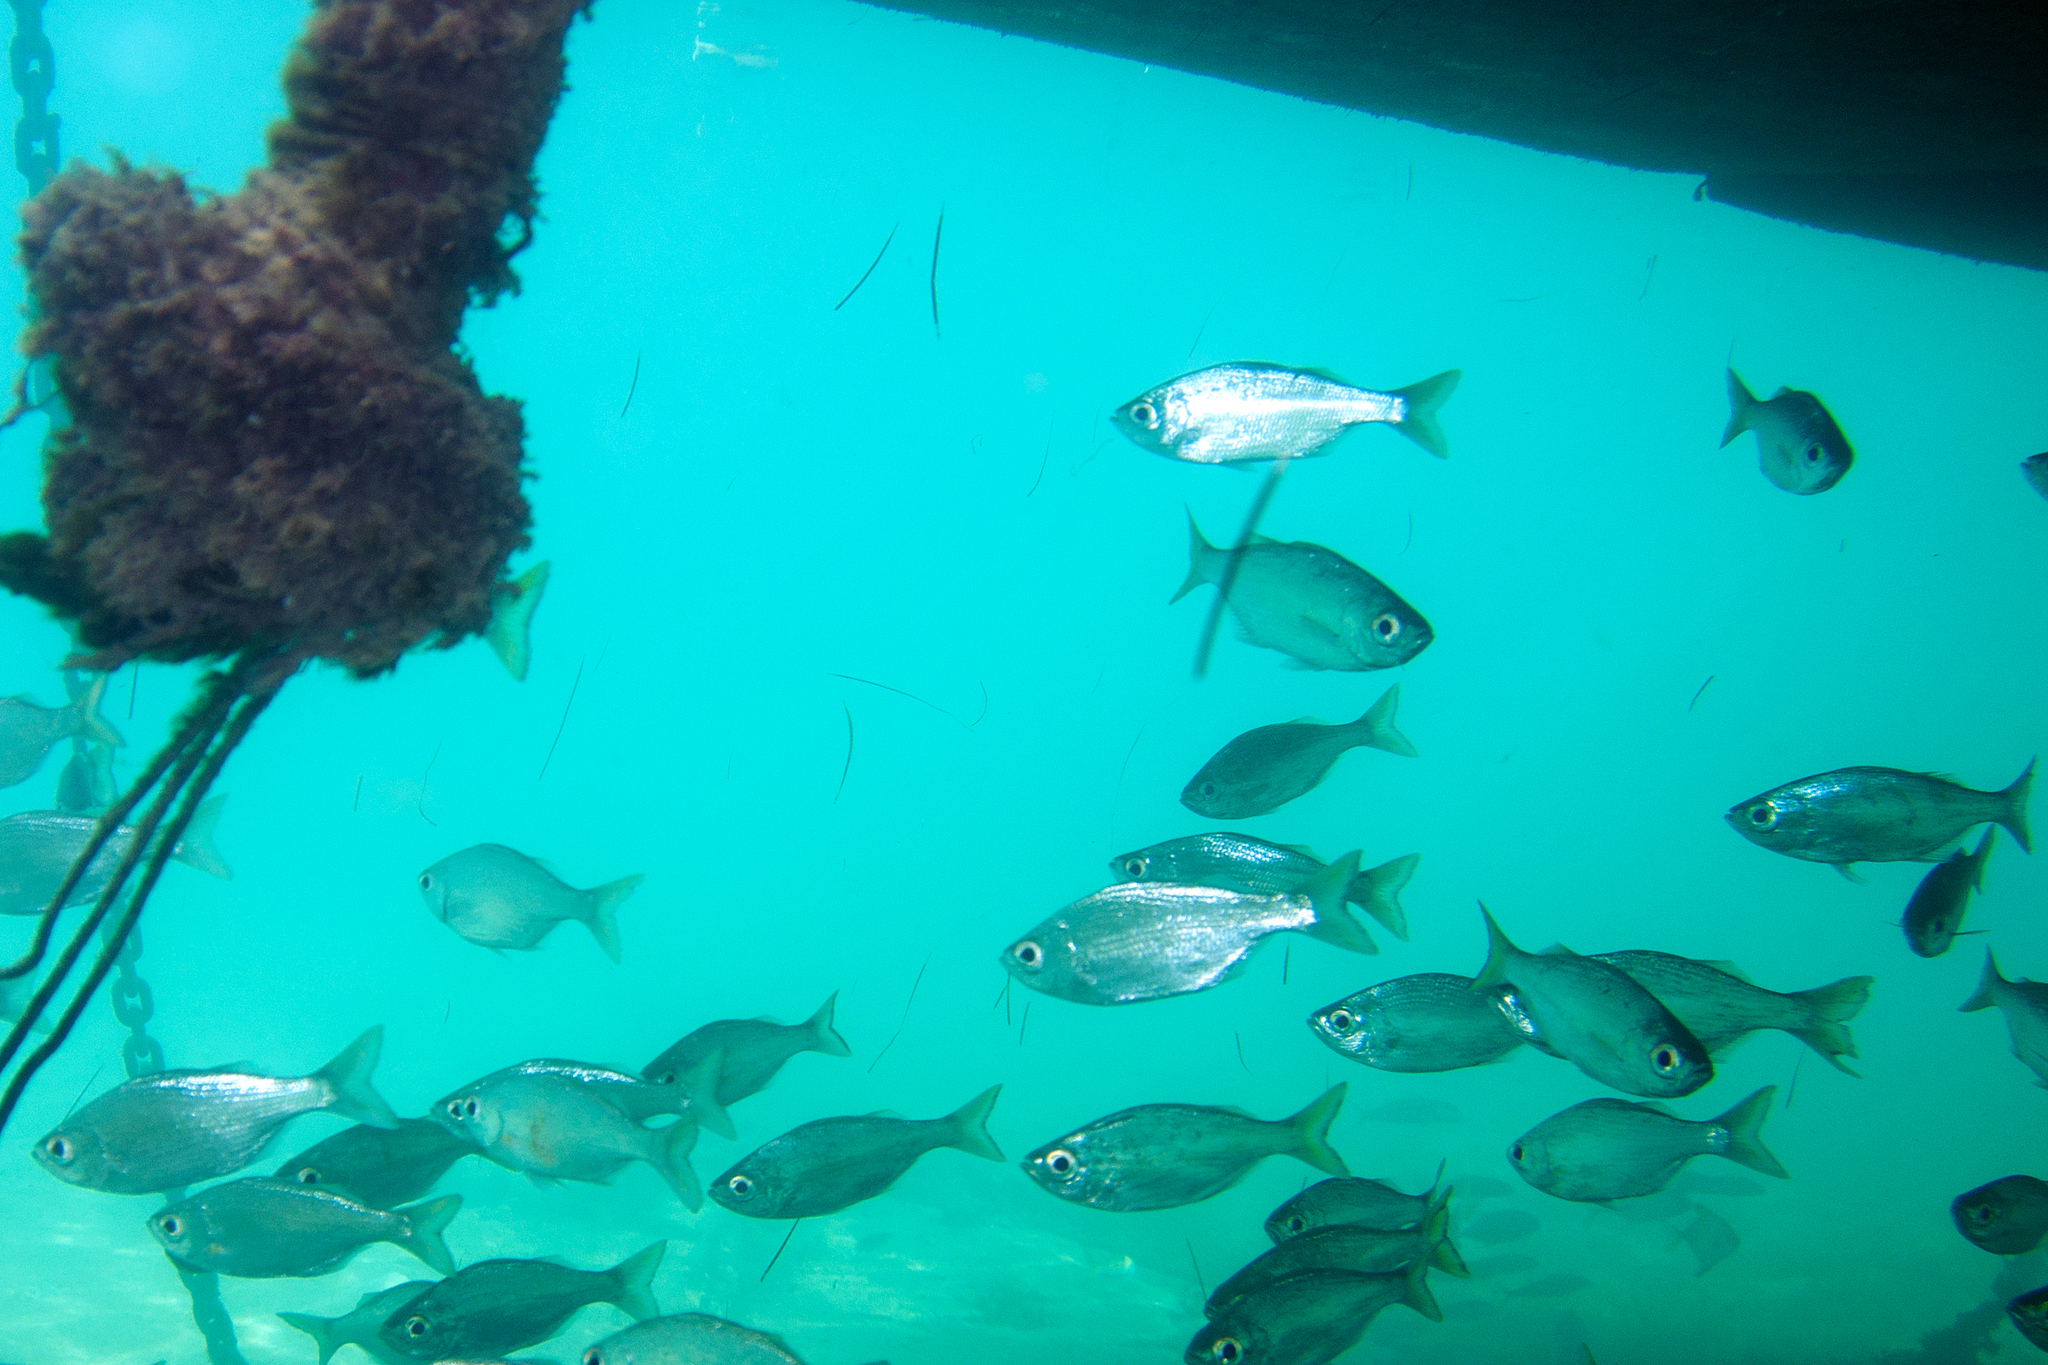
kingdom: Animalia
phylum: Chordata
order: Perciformes
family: Kuhliidae
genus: Kuhlia
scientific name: Kuhlia sandvicensis
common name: Hawaiian flagtail
